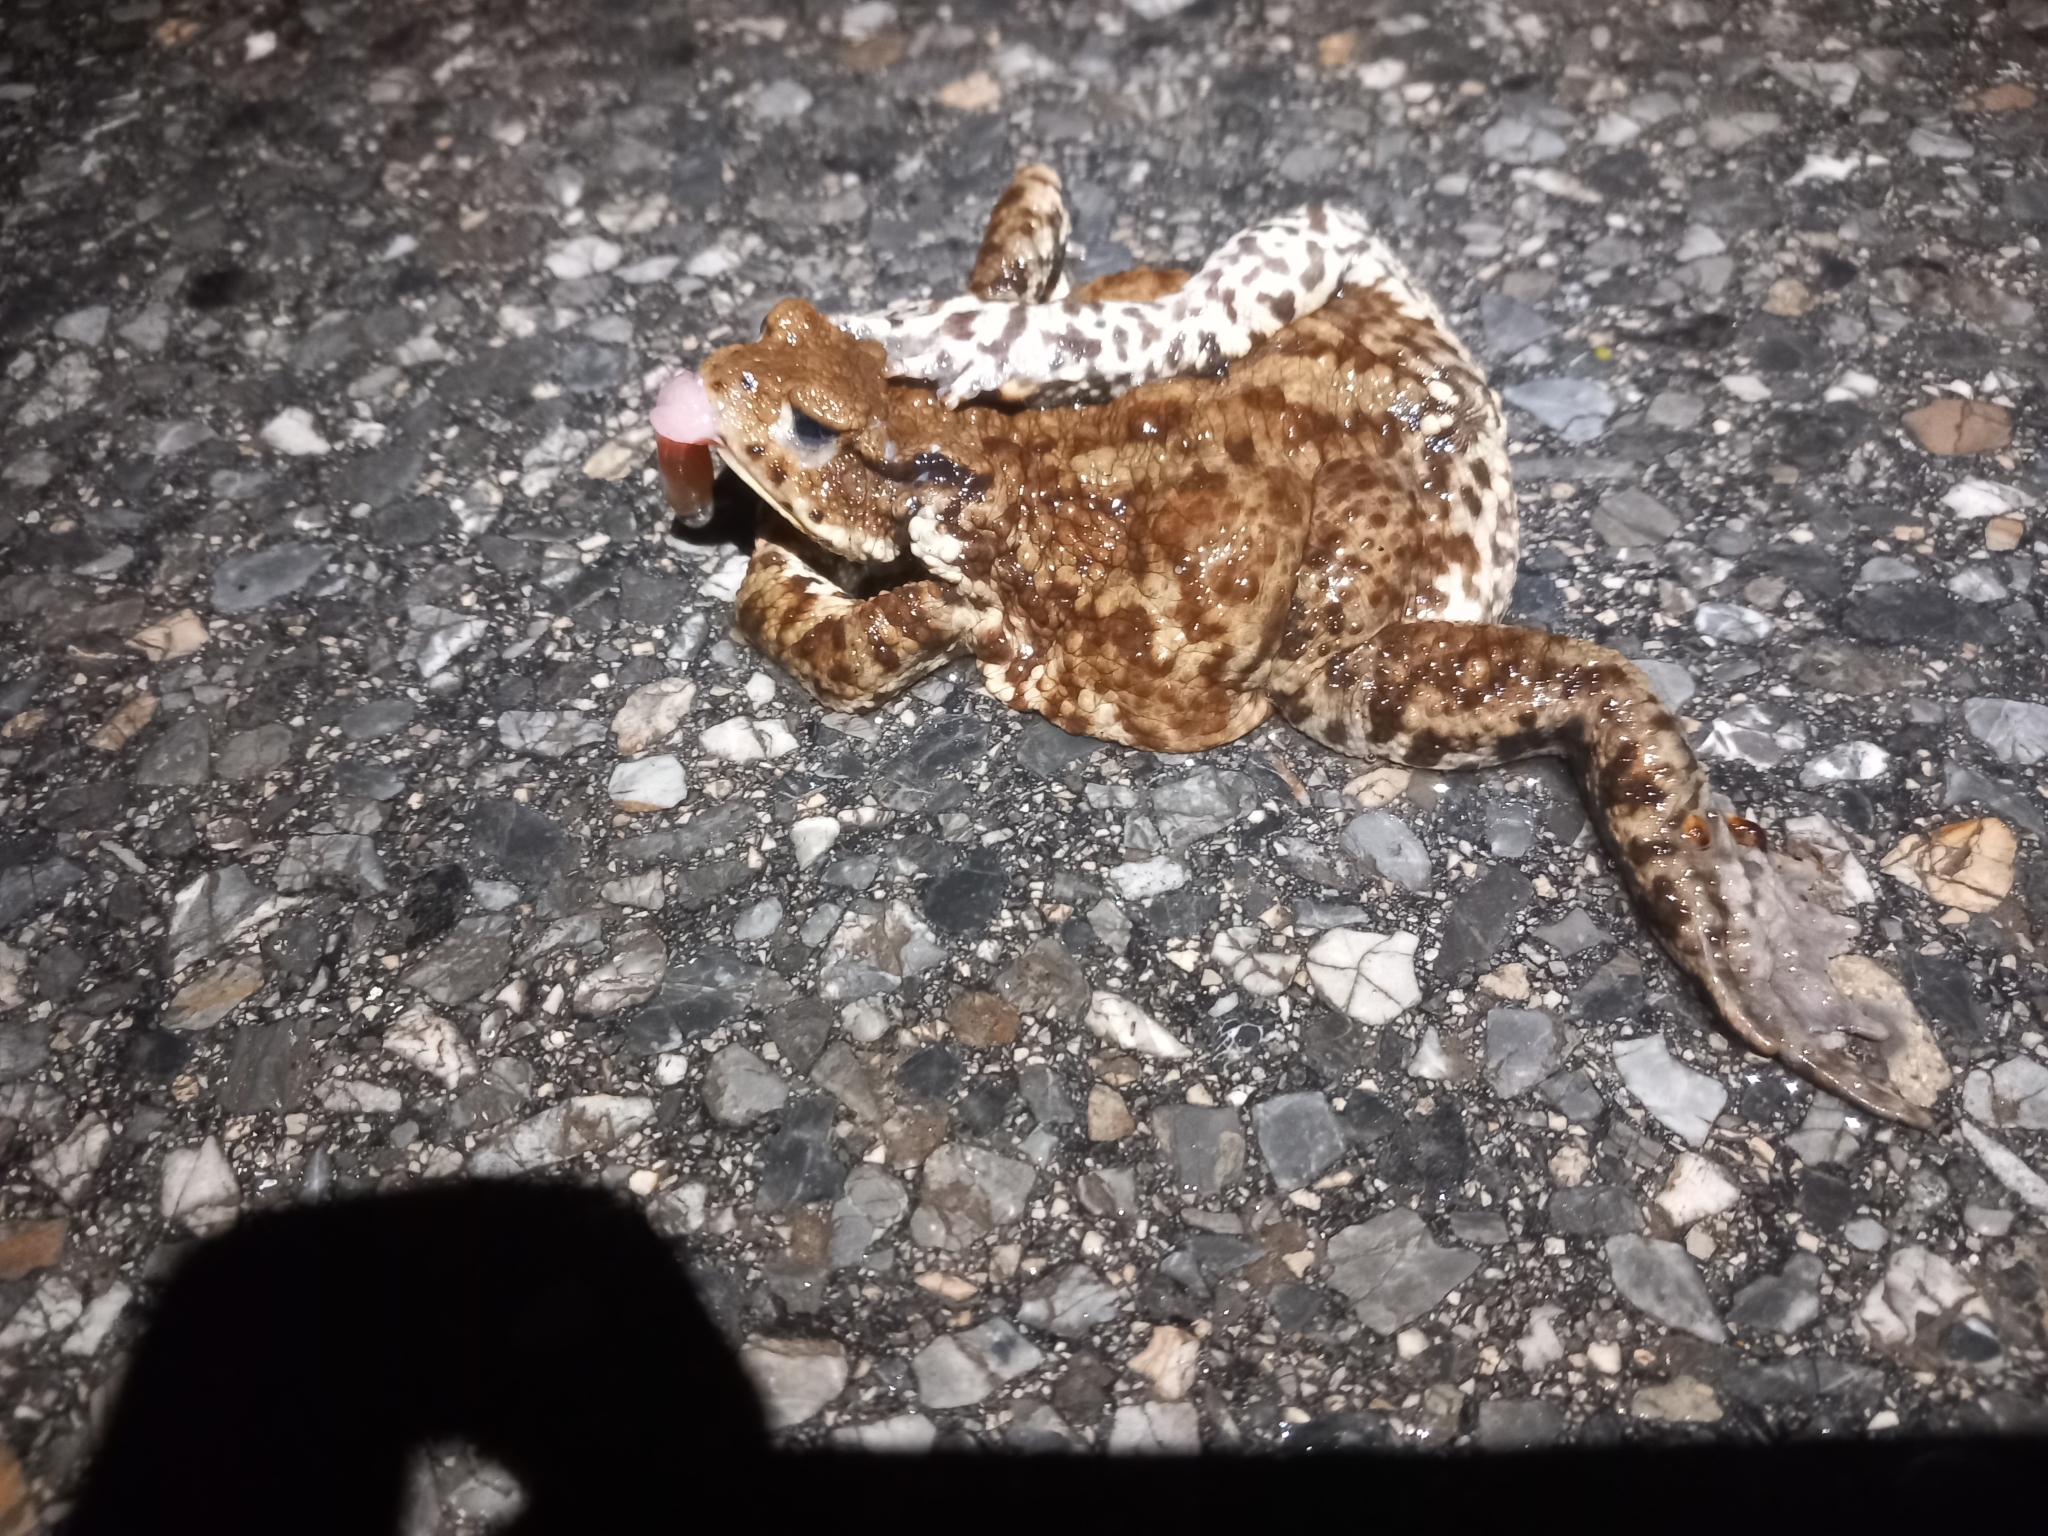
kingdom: Animalia
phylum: Chordata
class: Amphibia
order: Anura
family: Bufonidae
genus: Bufo
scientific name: Bufo bufo
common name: Common toad
